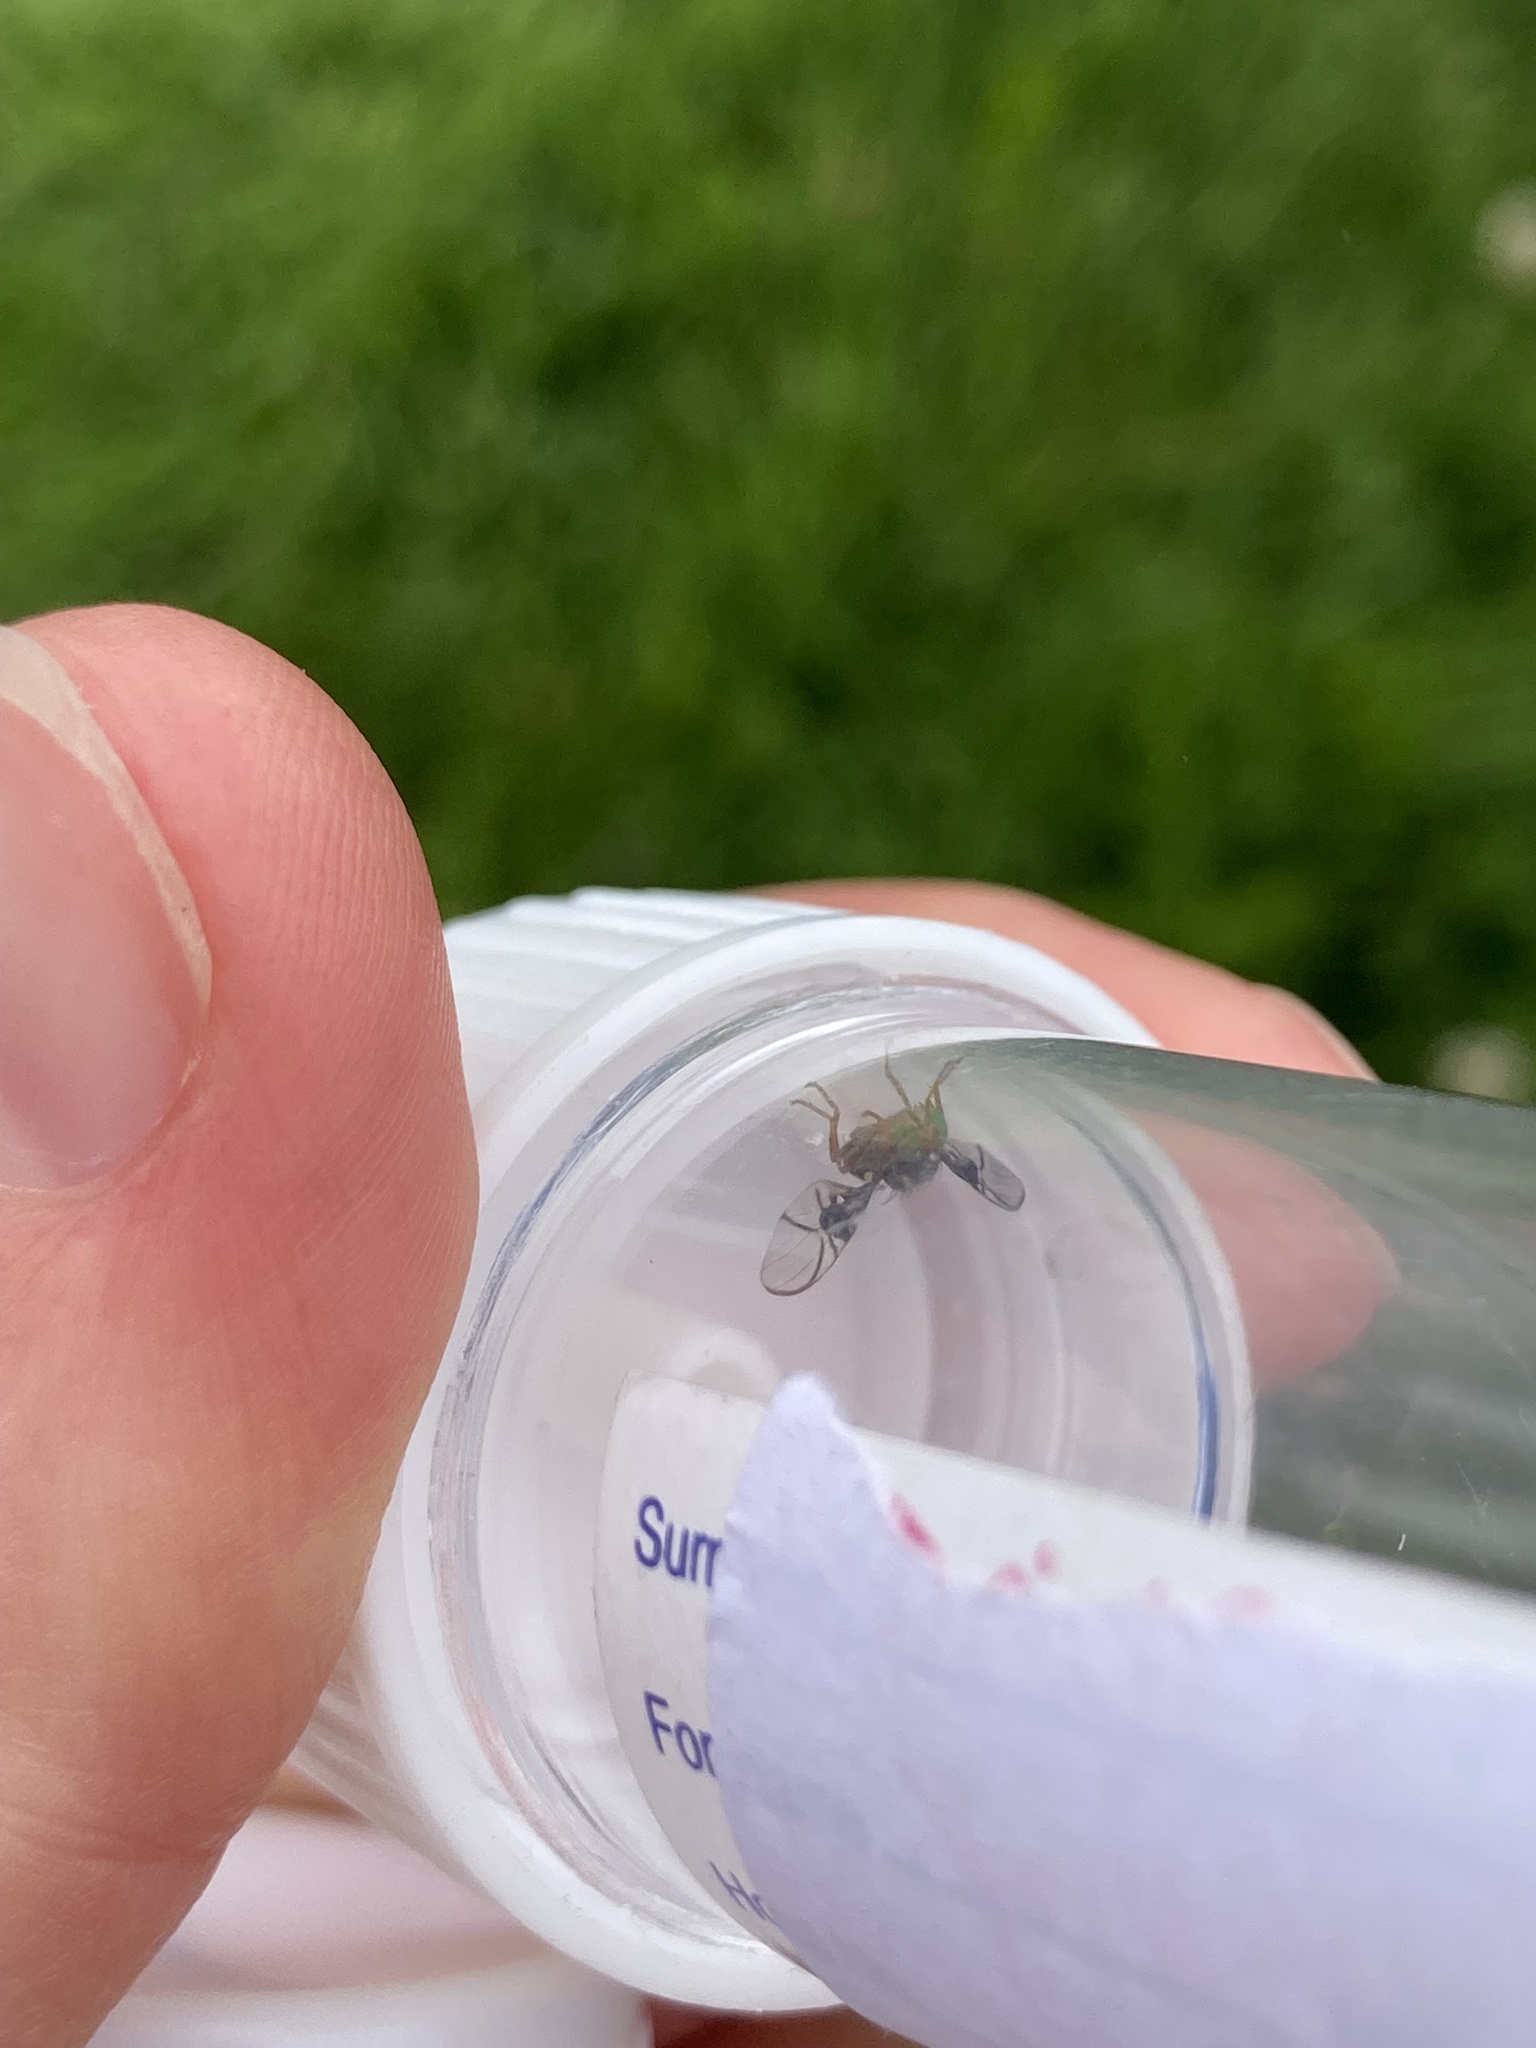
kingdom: Animalia
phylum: Arthropoda
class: Insecta
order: Diptera
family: Tephritidae
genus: Anomoia
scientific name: Anomoia purmunda
